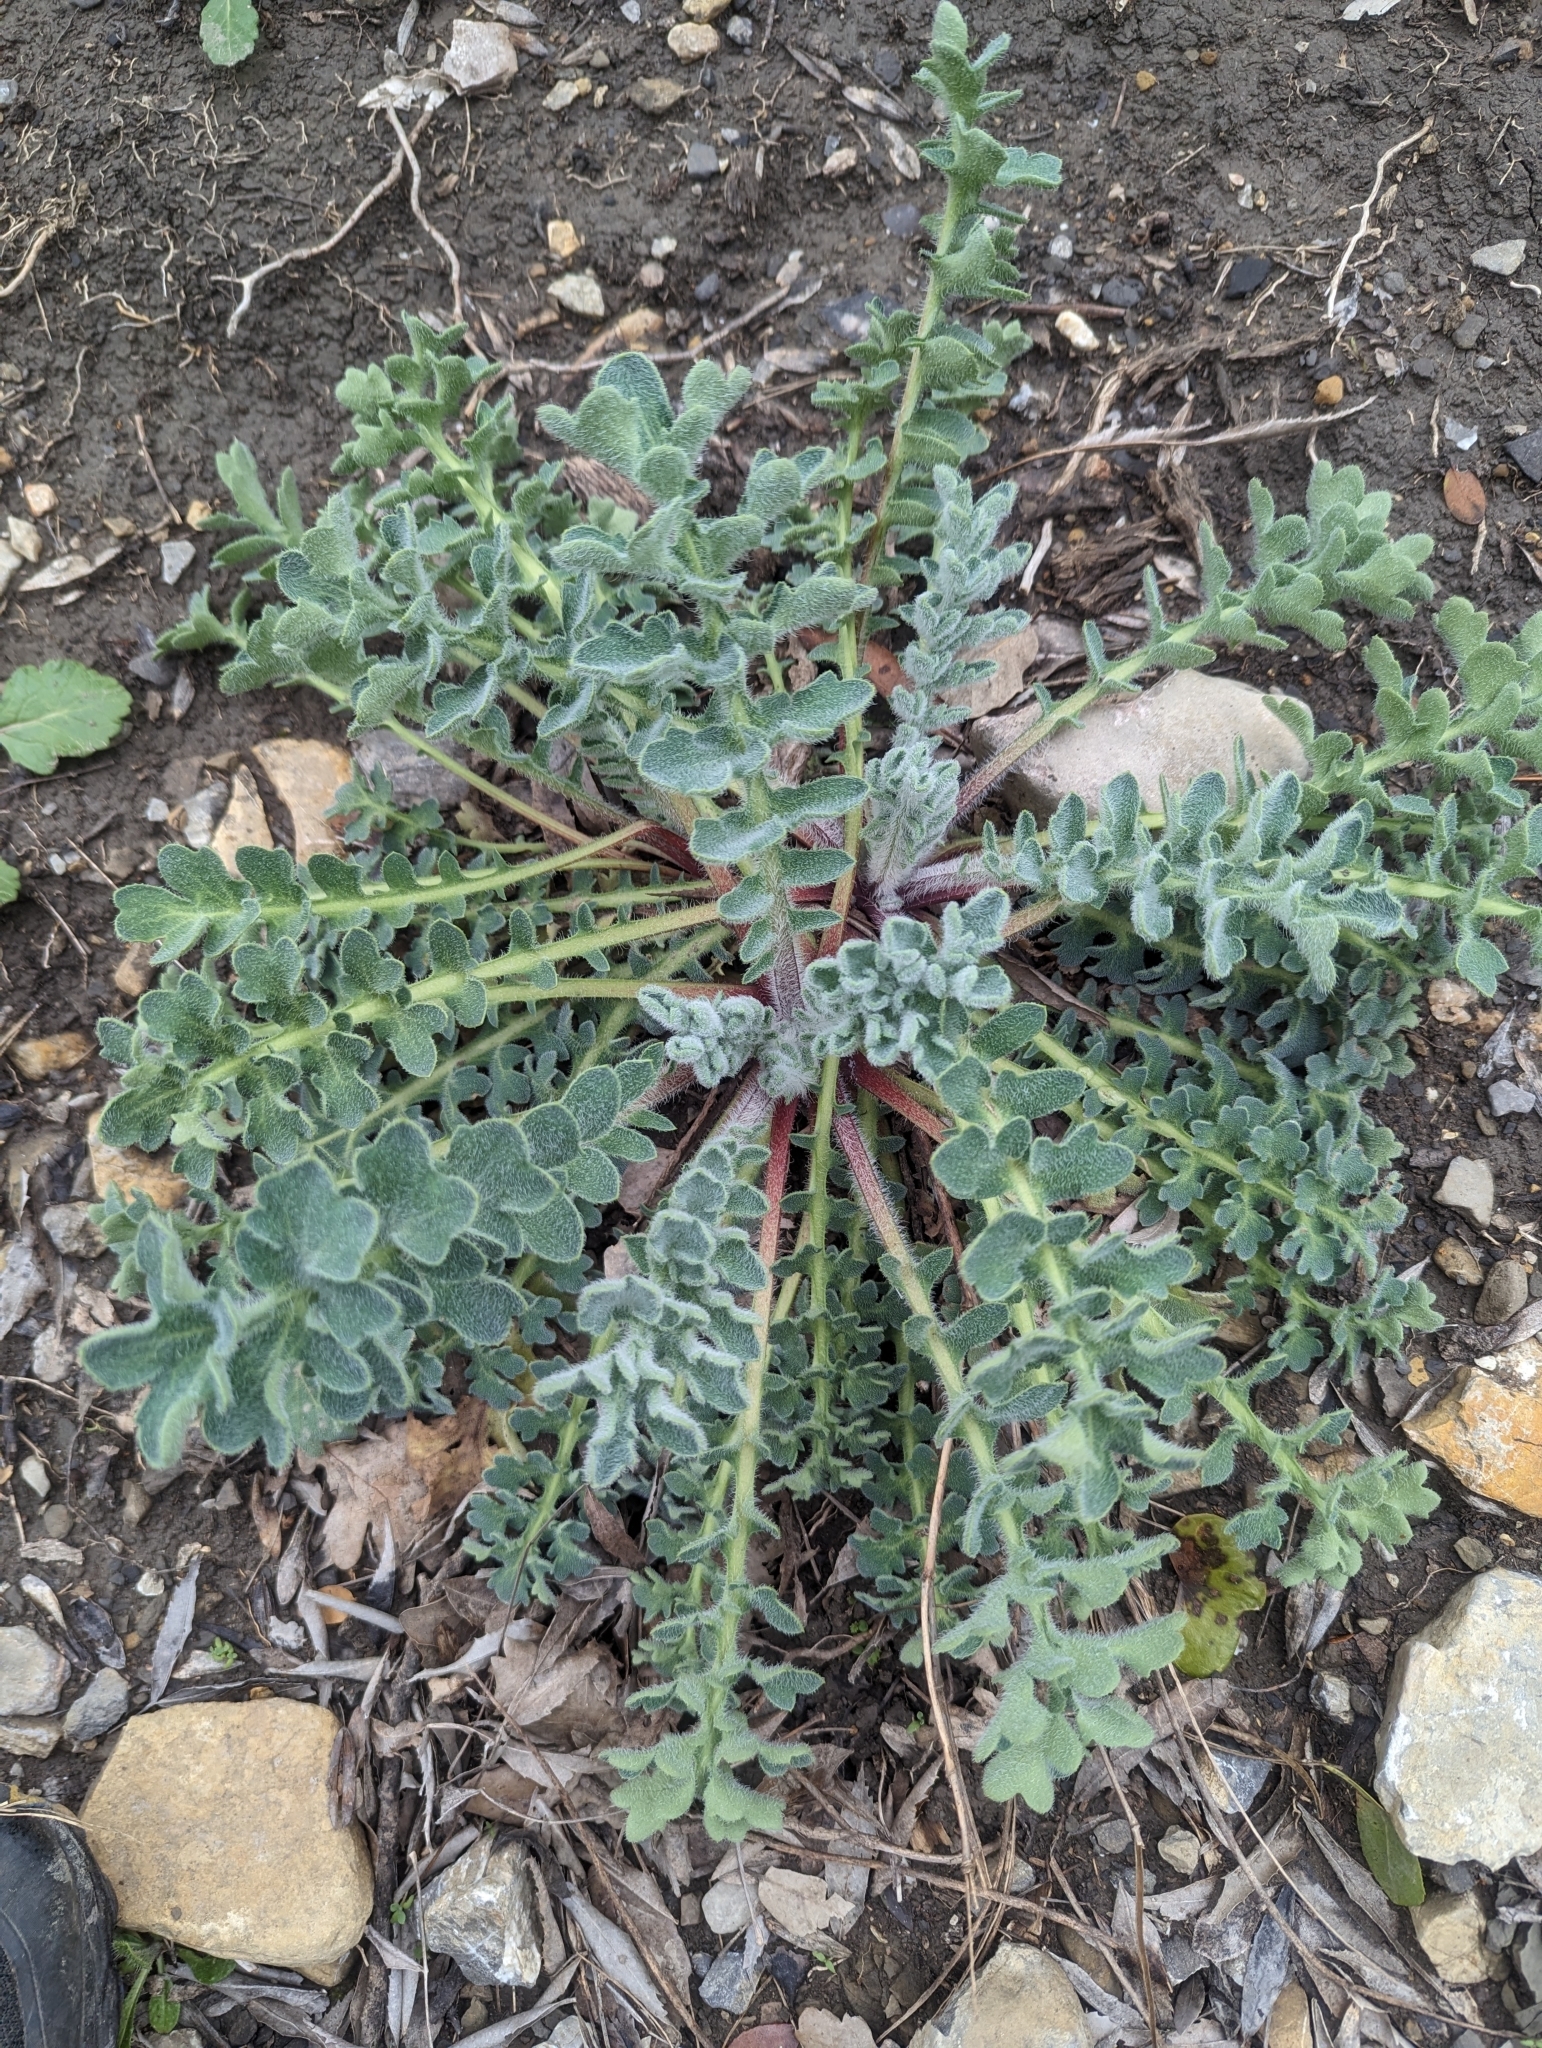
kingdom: Plantae
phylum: Tracheophyta
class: Magnoliopsida
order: Ranunculales
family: Papaveraceae
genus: Glaucium
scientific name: Glaucium flavum
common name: Yellow horned-poppy
